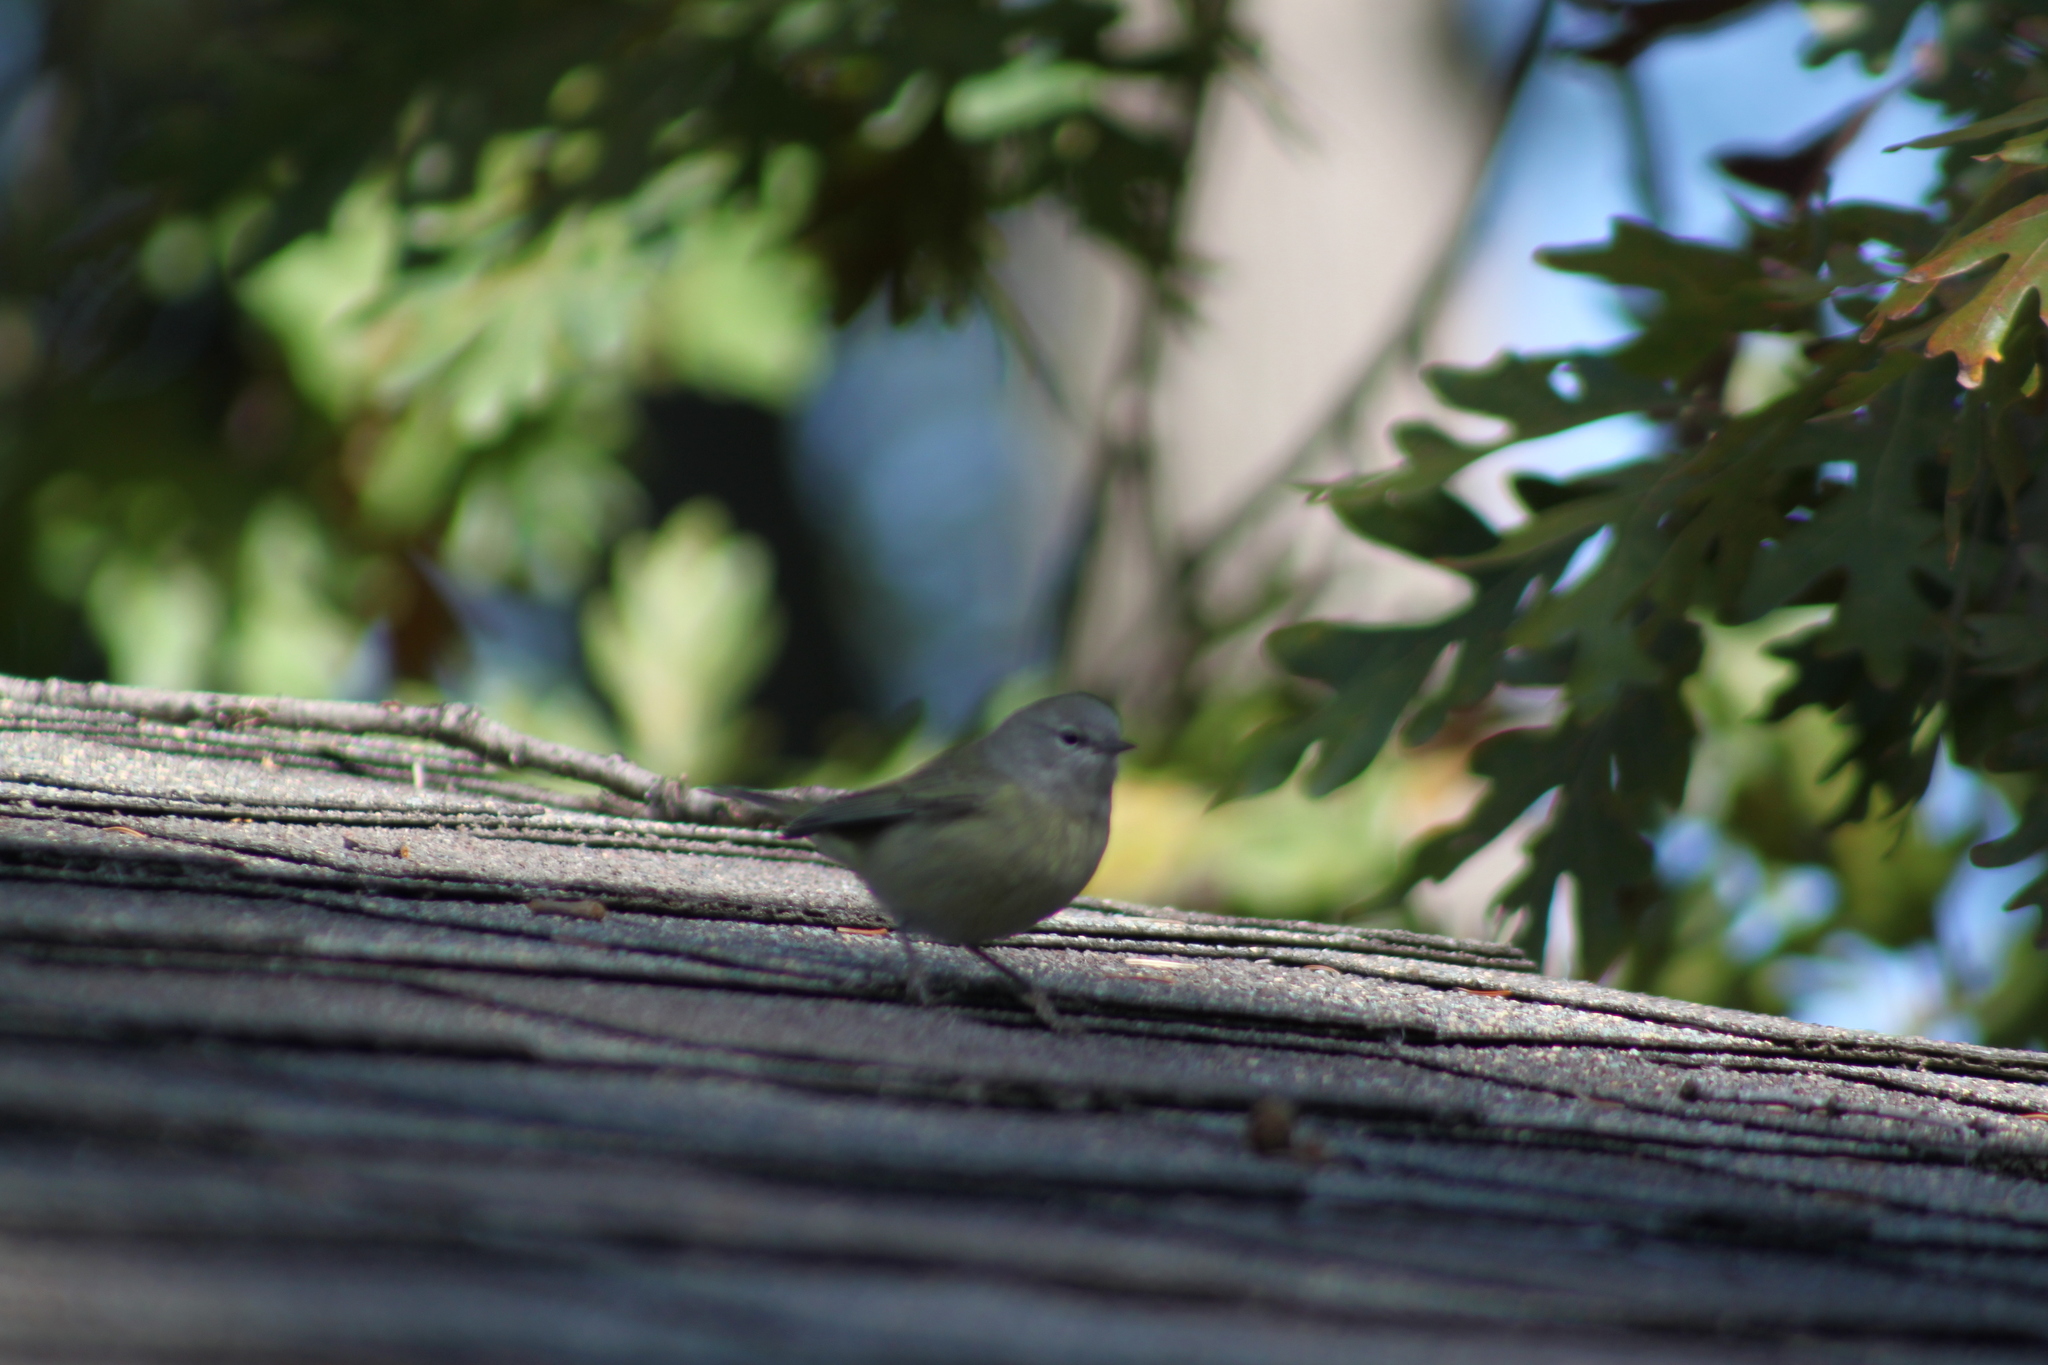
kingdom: Animalia
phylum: Chordata
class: Aves
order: Passeriformes
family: Parulidae
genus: Leiothlypis
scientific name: Leiothlypis celata
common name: Orange-crowned warbler
